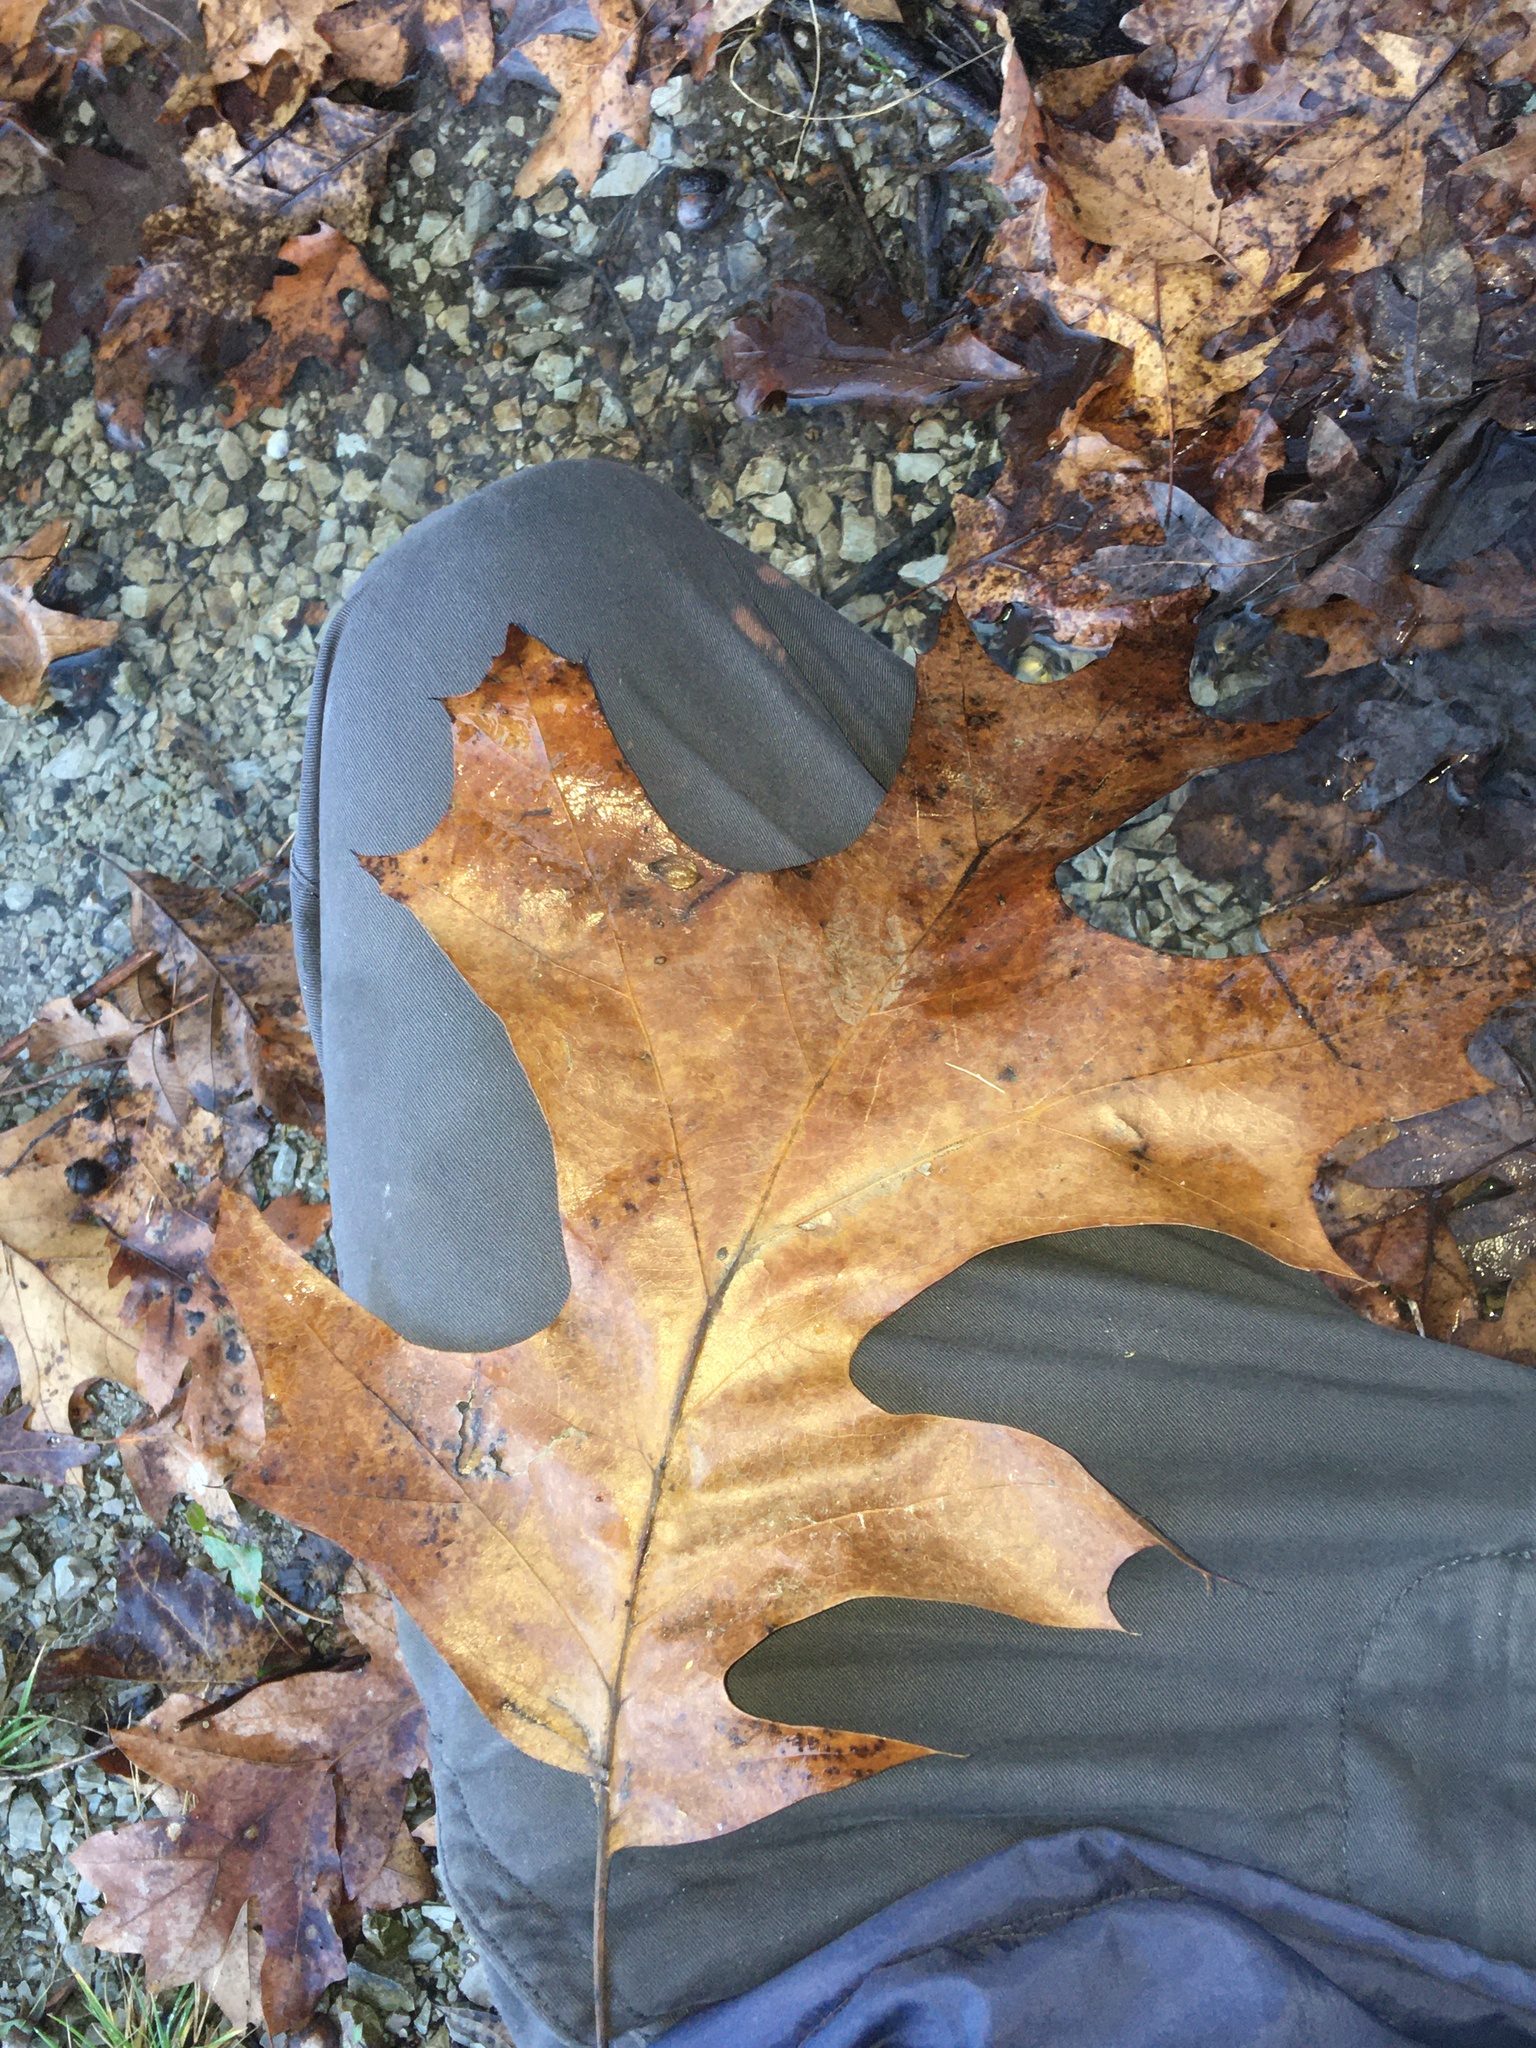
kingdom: Plantae
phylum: Tracheophyta
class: Magnoliopsida
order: Fagales
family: Fagaceae
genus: Quercus
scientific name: Quercus velutina
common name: Black oak
